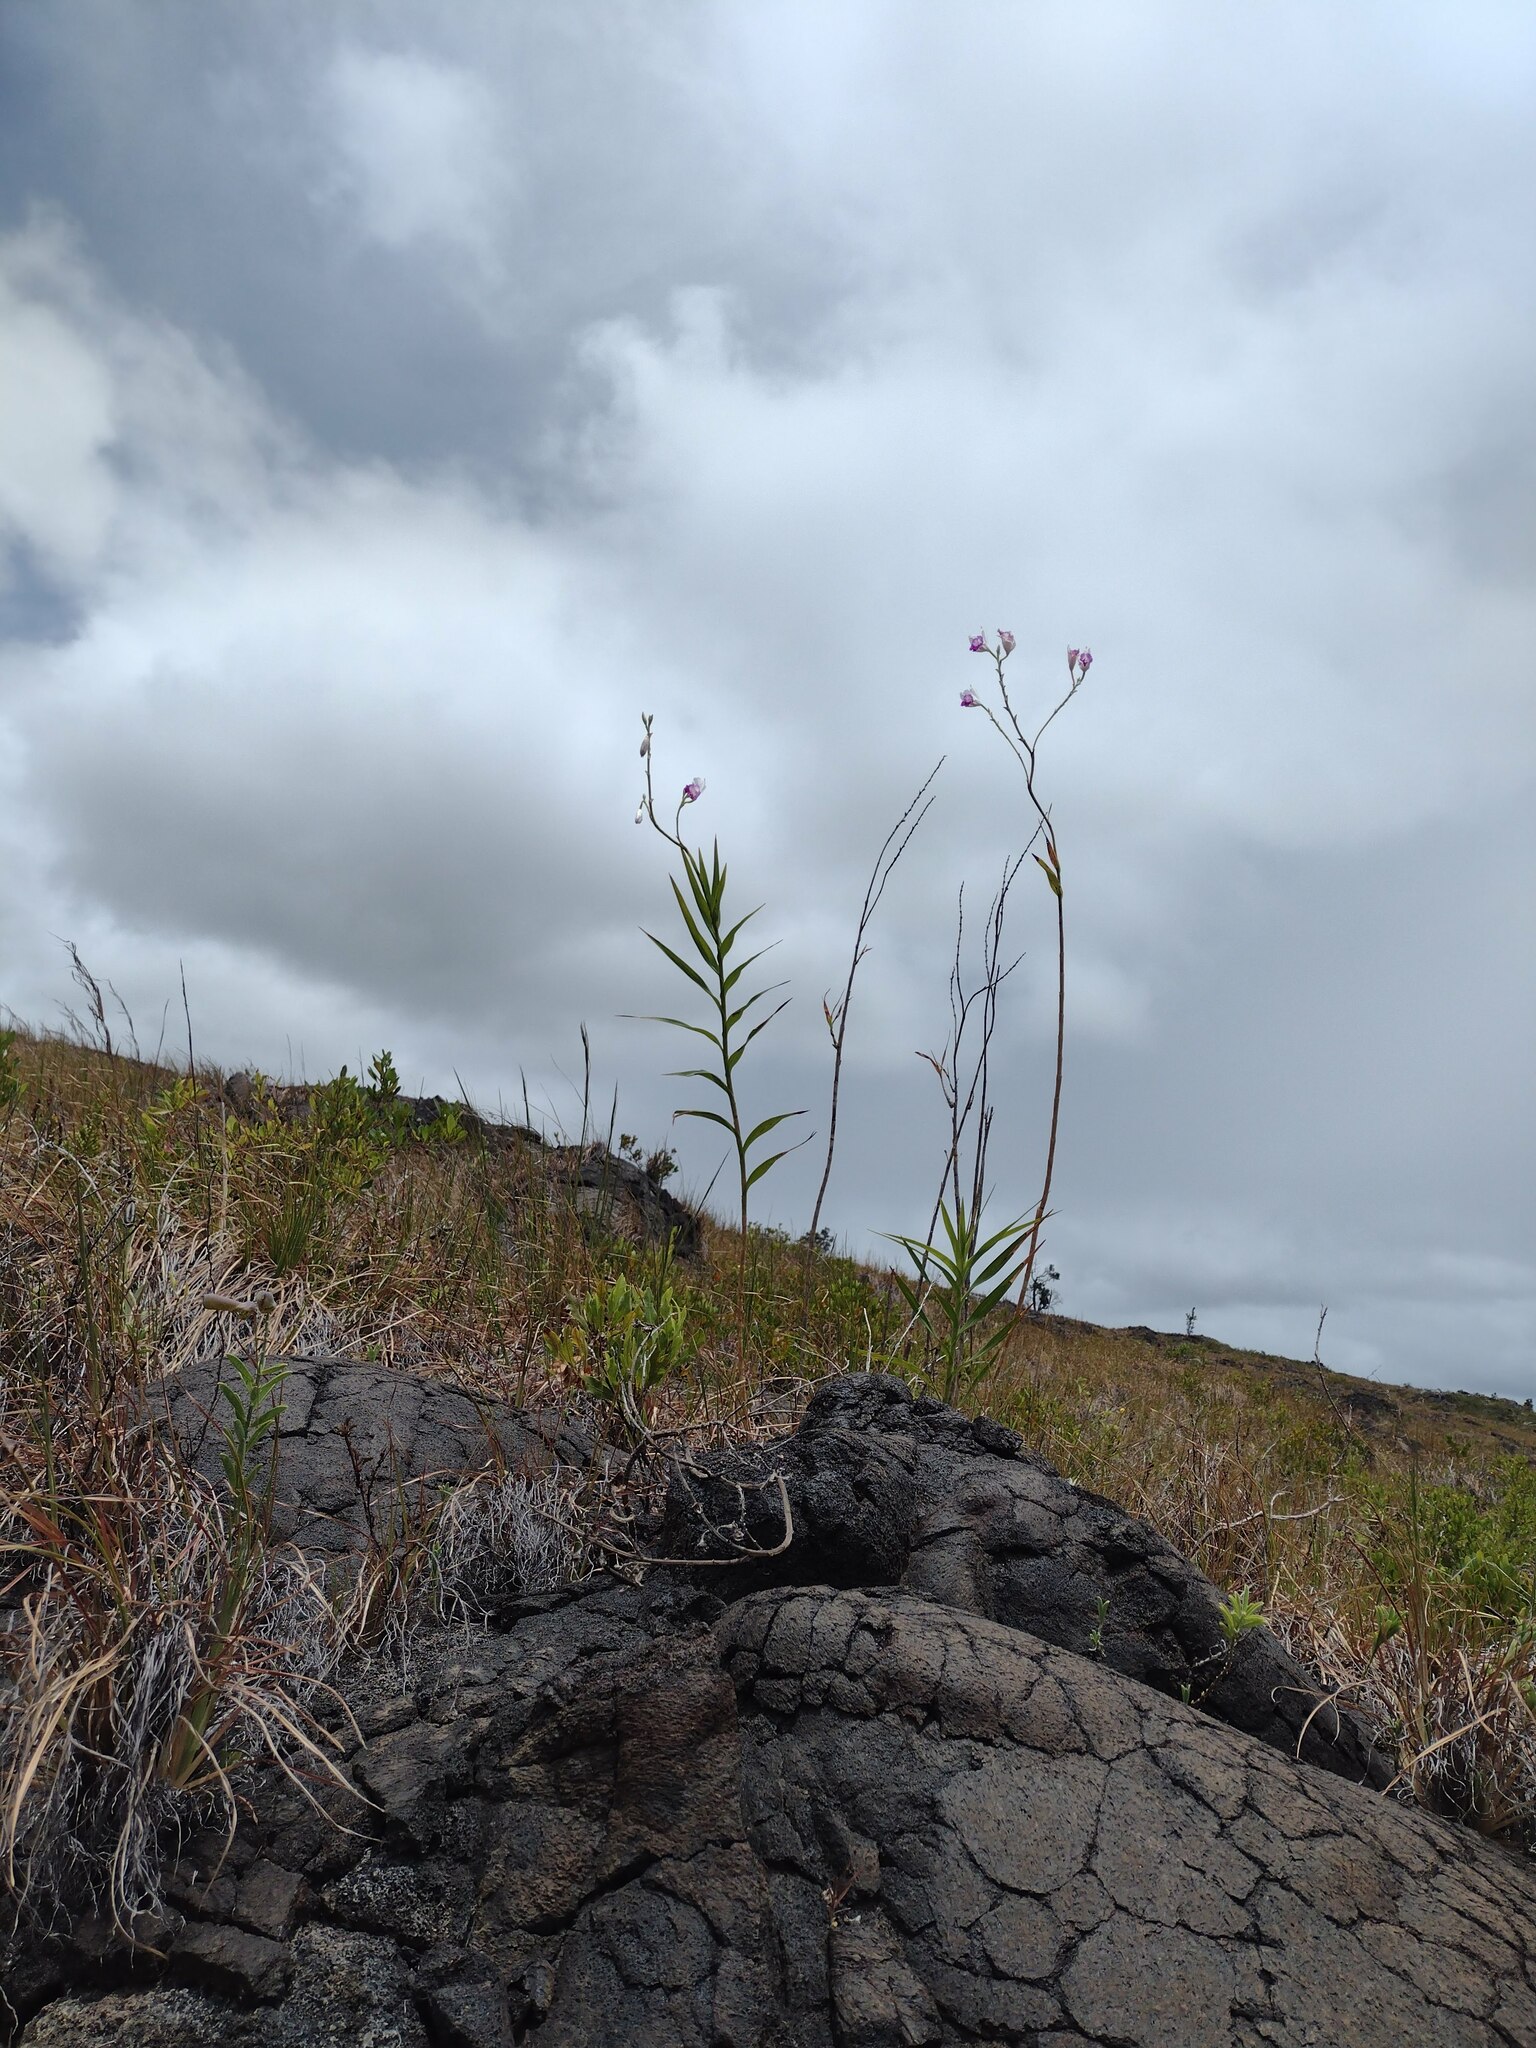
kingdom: Plantae
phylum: Tracheophyta
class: Liliopsida
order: Asparagales
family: Orchidaceae
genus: Arundina
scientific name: Arundina graminifolia
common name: Bamboo orchid
